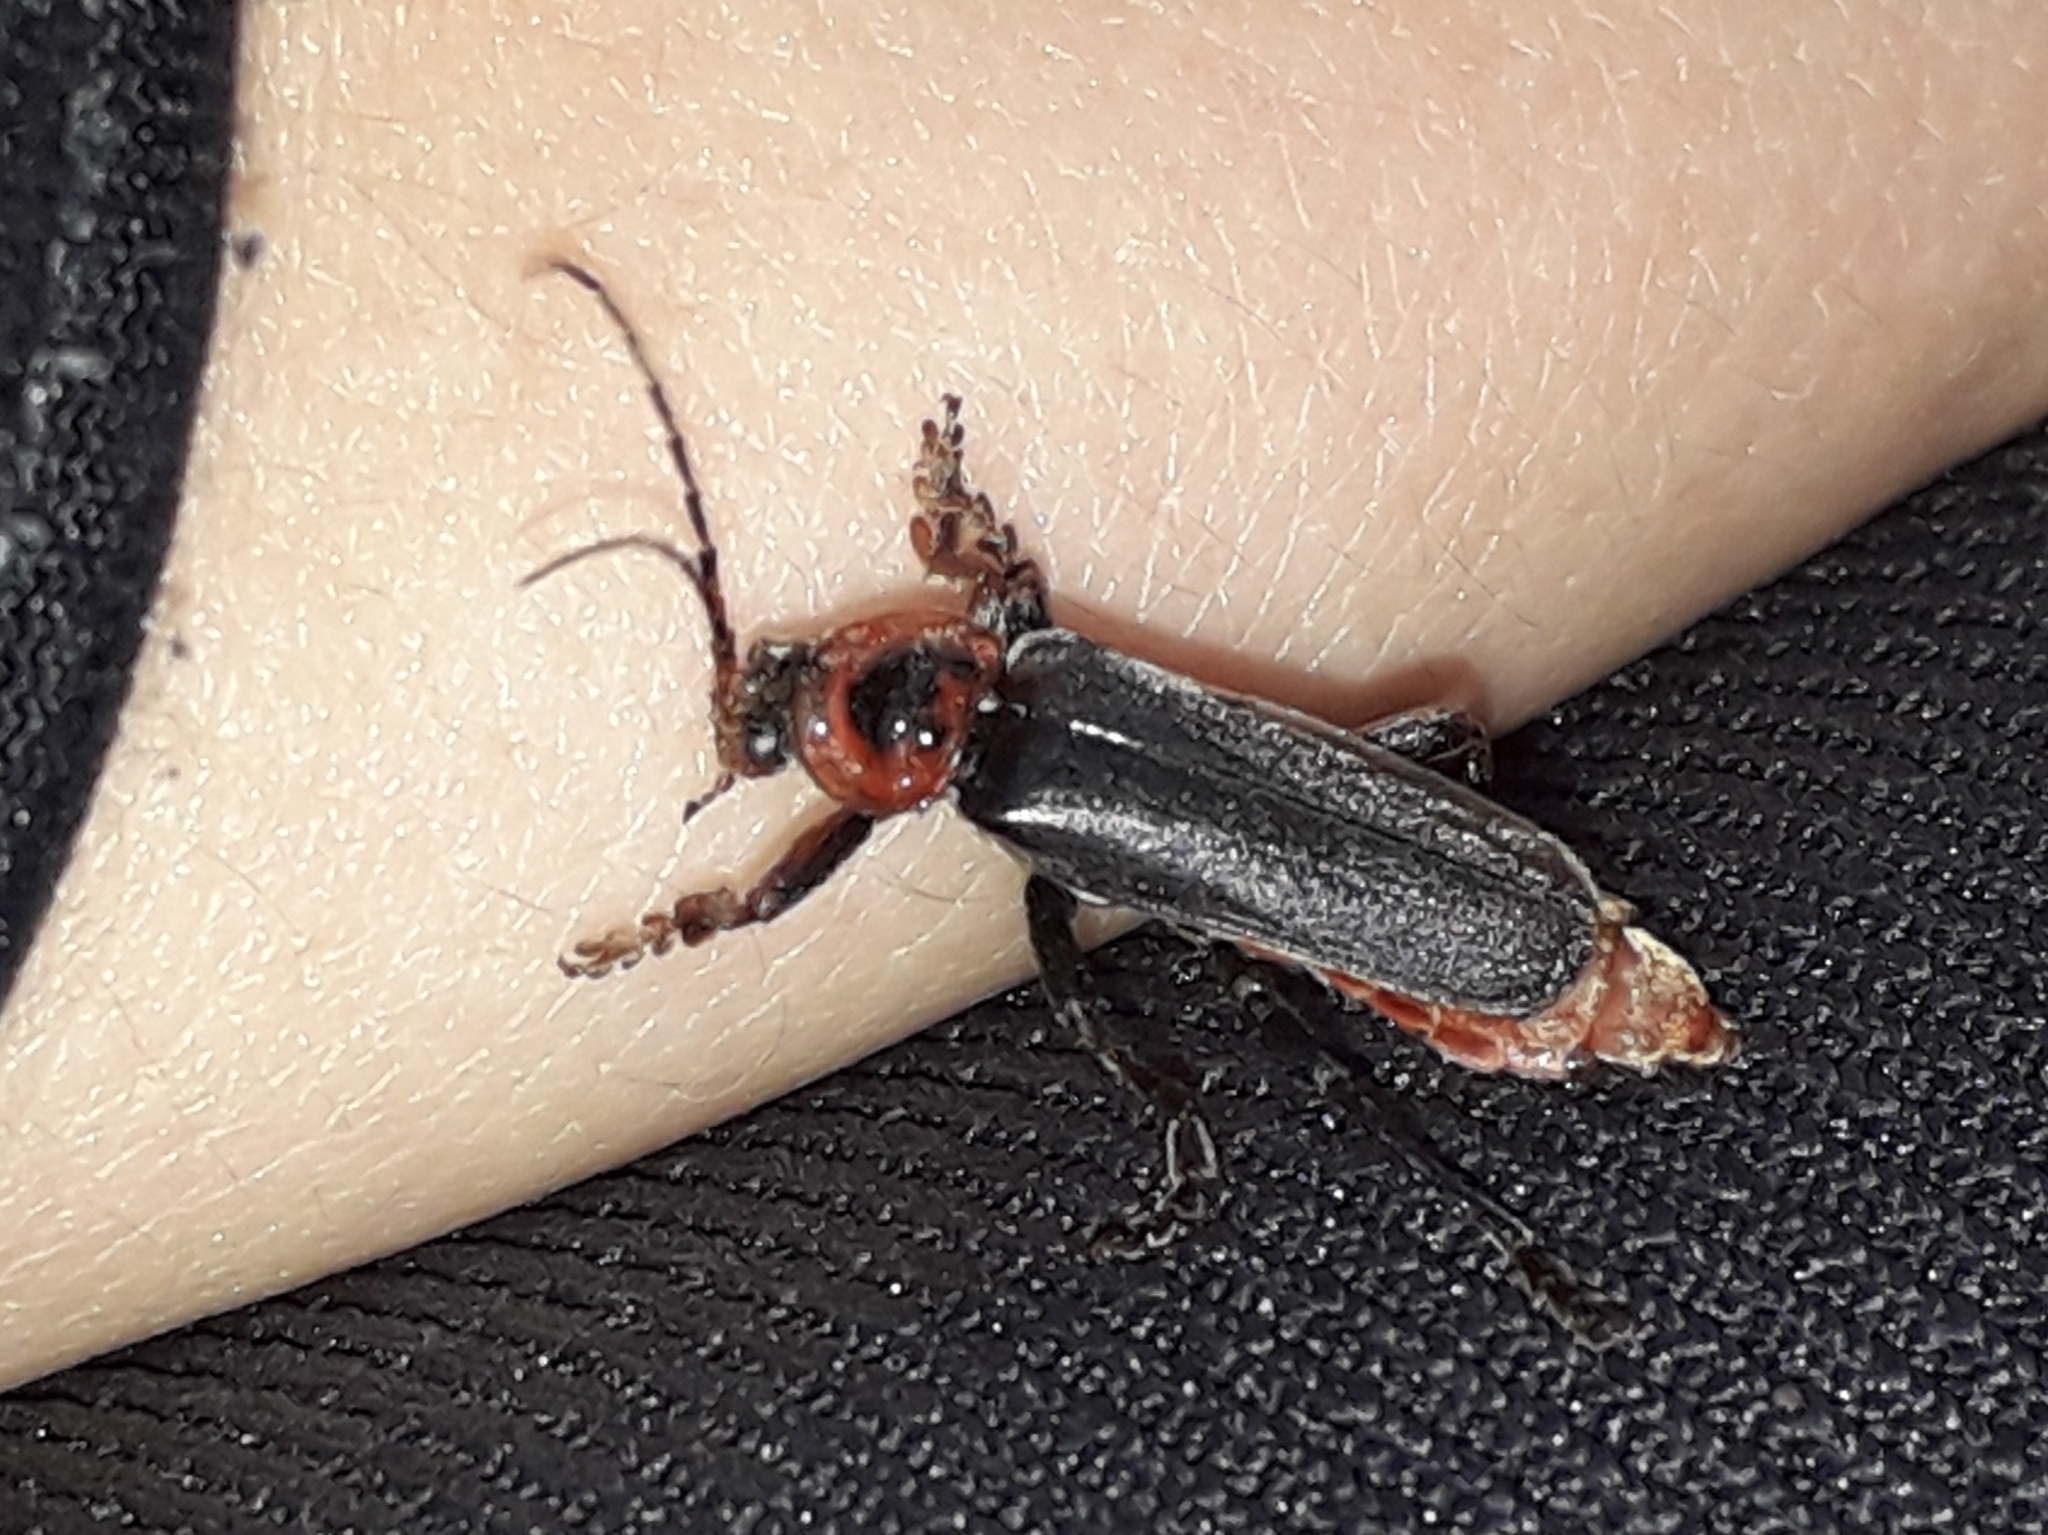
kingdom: Animalia
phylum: Arthropoda
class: Insecta
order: Coleoptera
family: Cantharidae
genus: Cantharis
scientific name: Cantharis annularis
